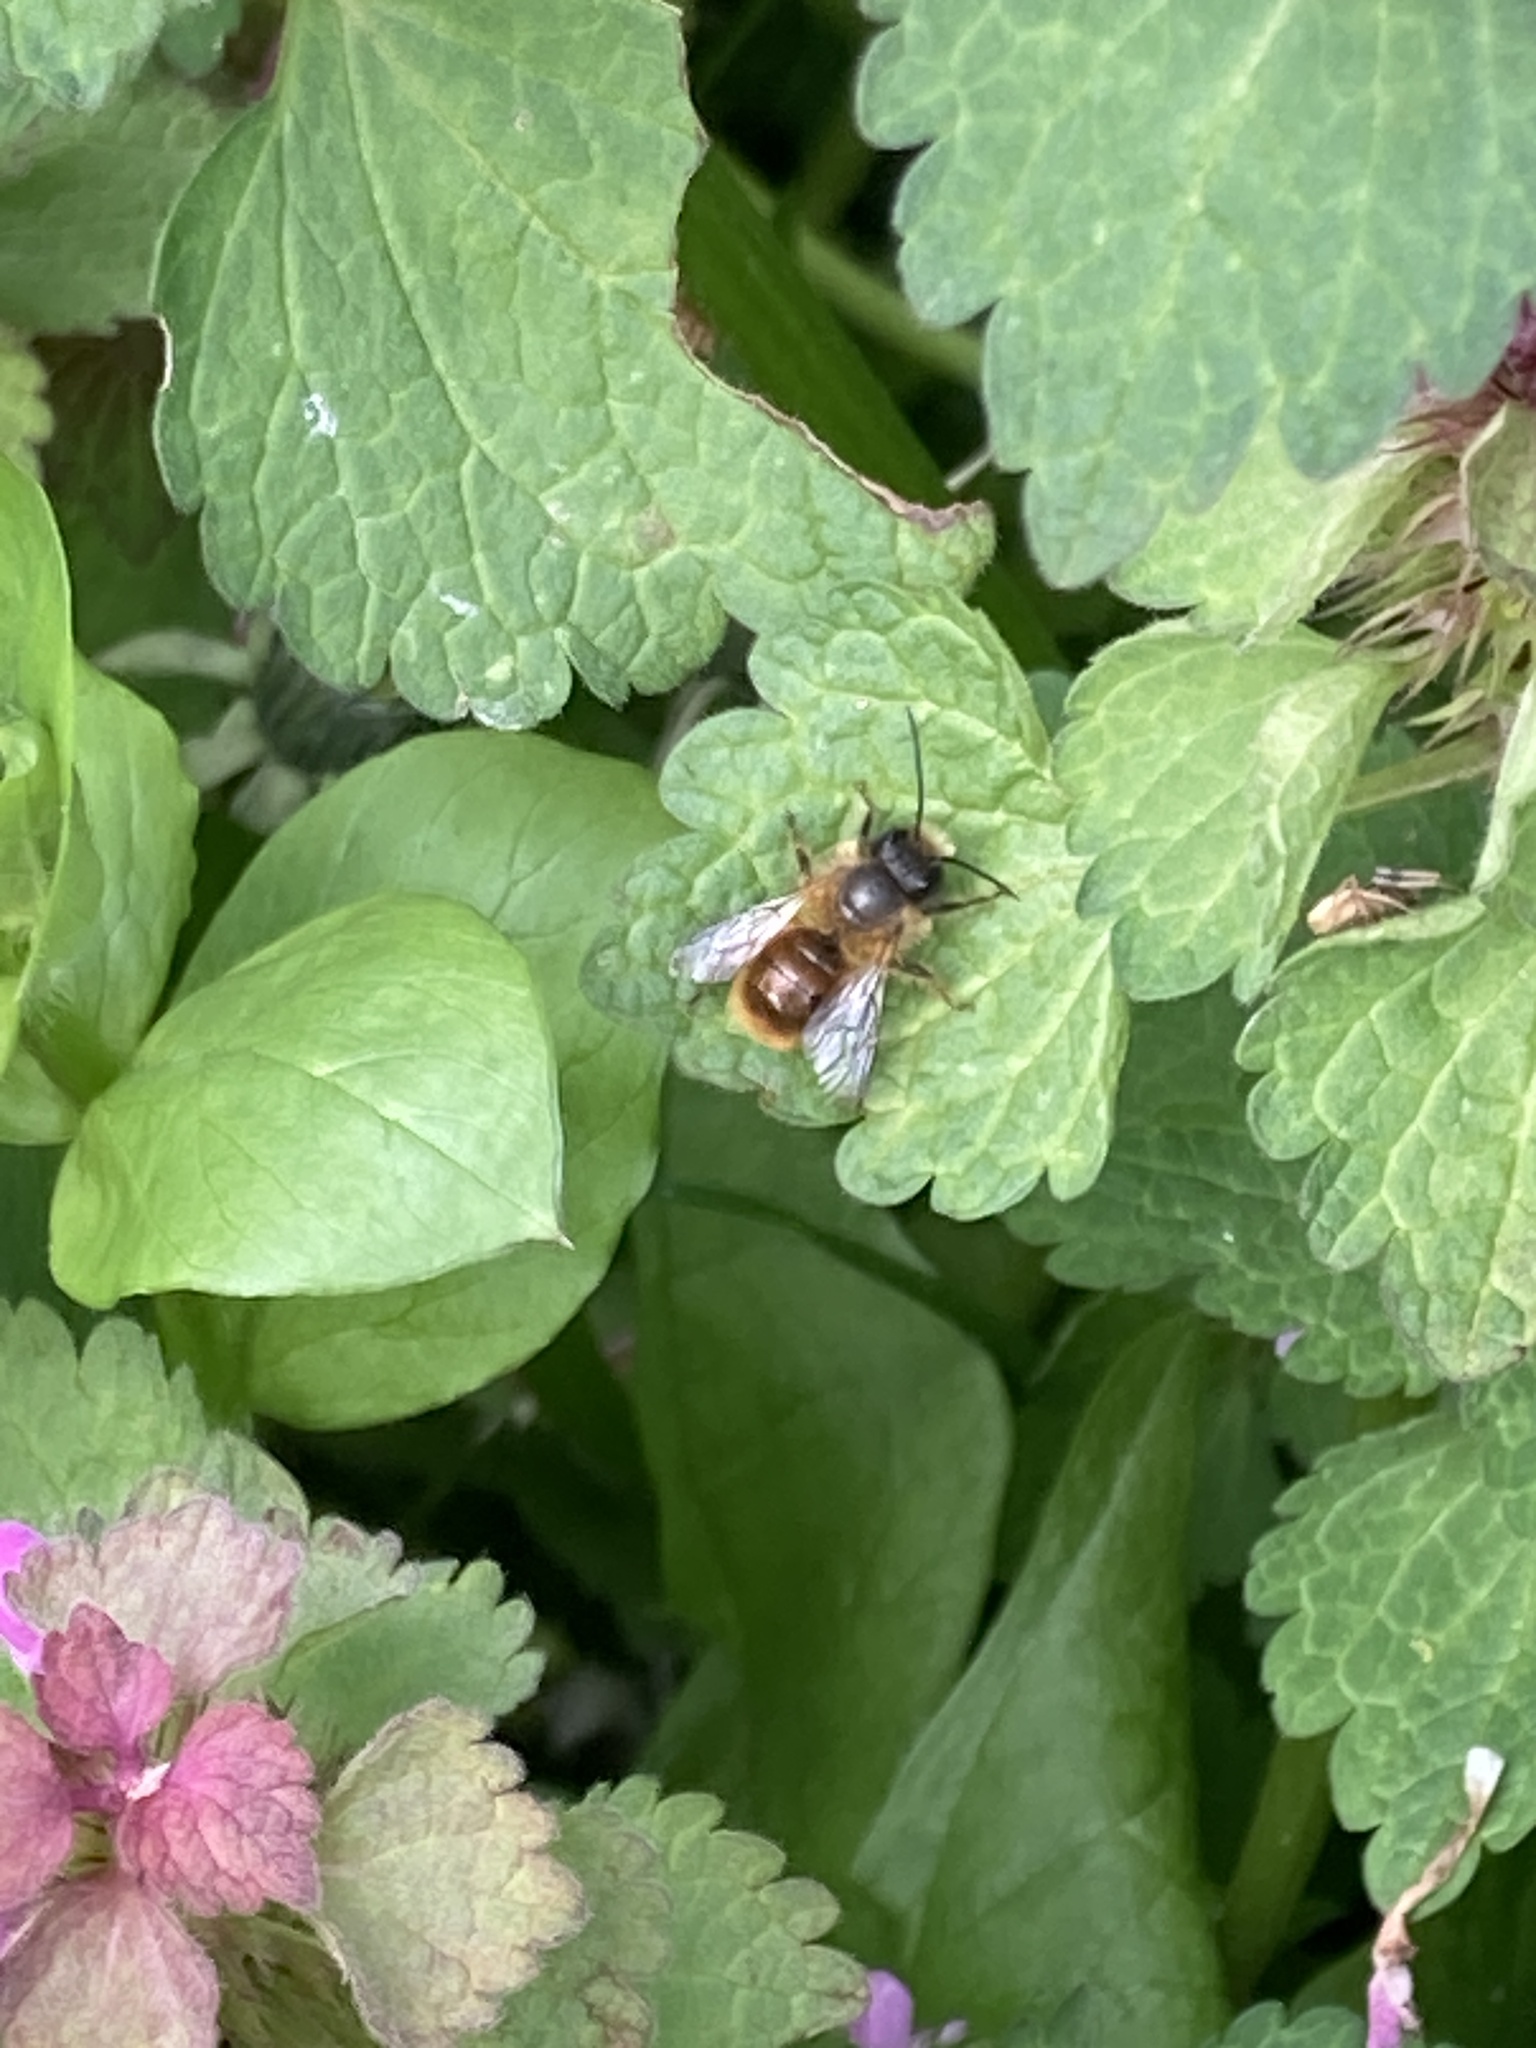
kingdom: Animalia
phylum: Arthropoda
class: Insecta
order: Hymenoptera
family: Megachilidae
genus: Osmia
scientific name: Osmia bicornis
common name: Red mason bee
